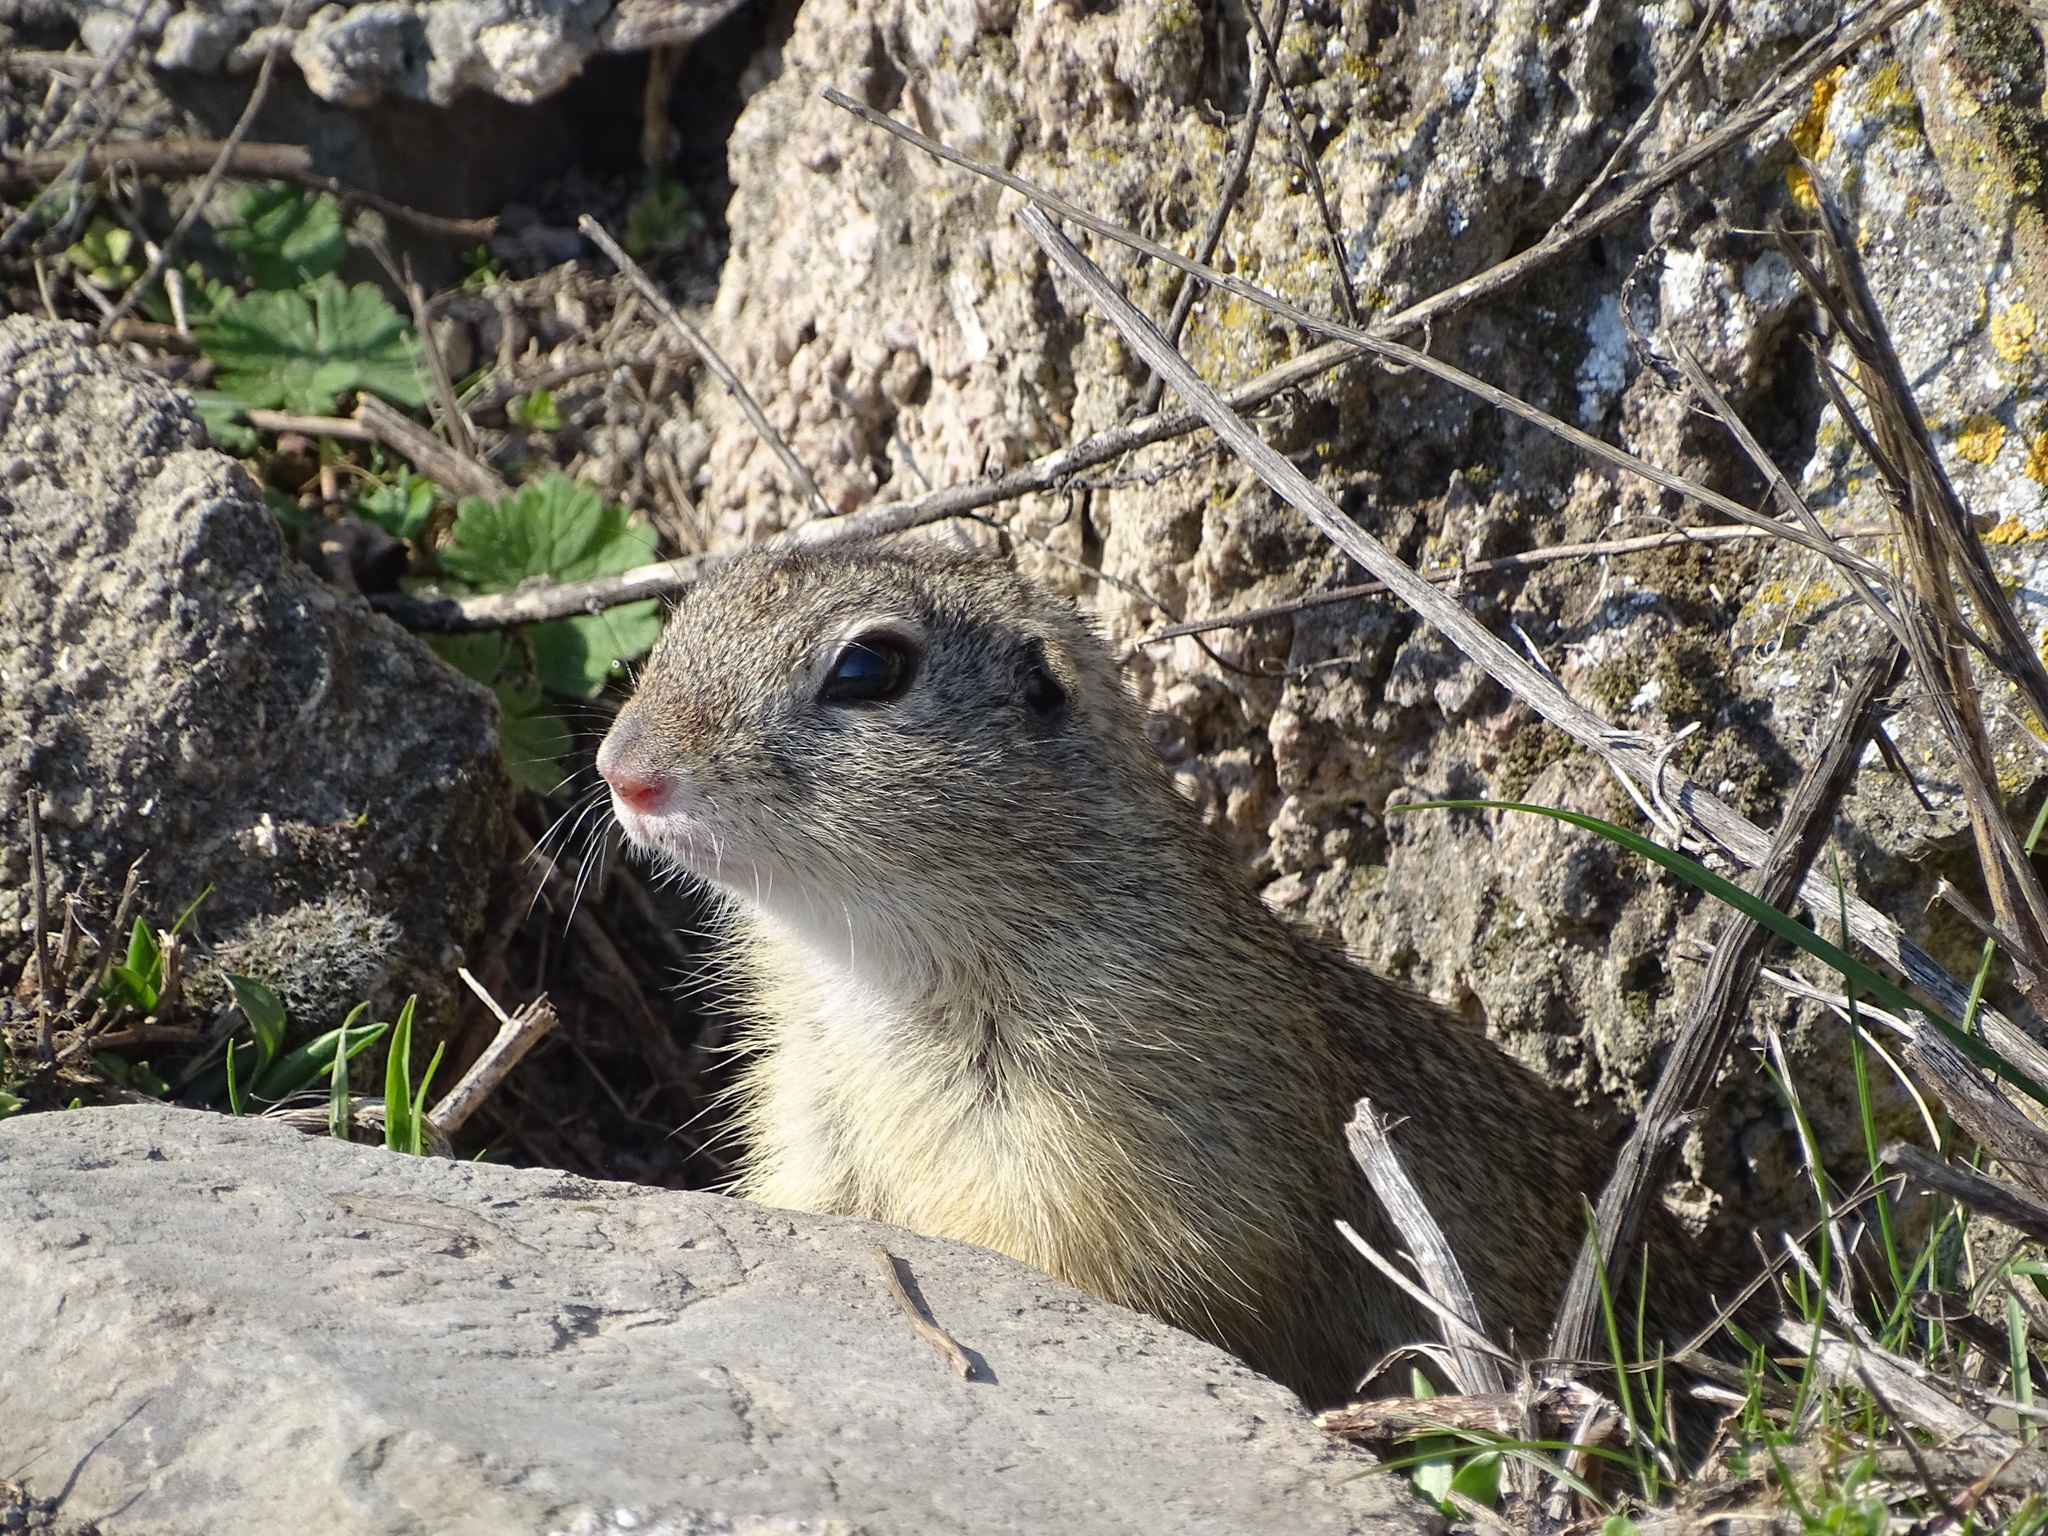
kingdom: Animalia
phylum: Chordata
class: Mammalia
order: Rodentia
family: Sciuridae
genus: Spermophilus
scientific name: Spermophilus citellus
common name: European ground squirrel
